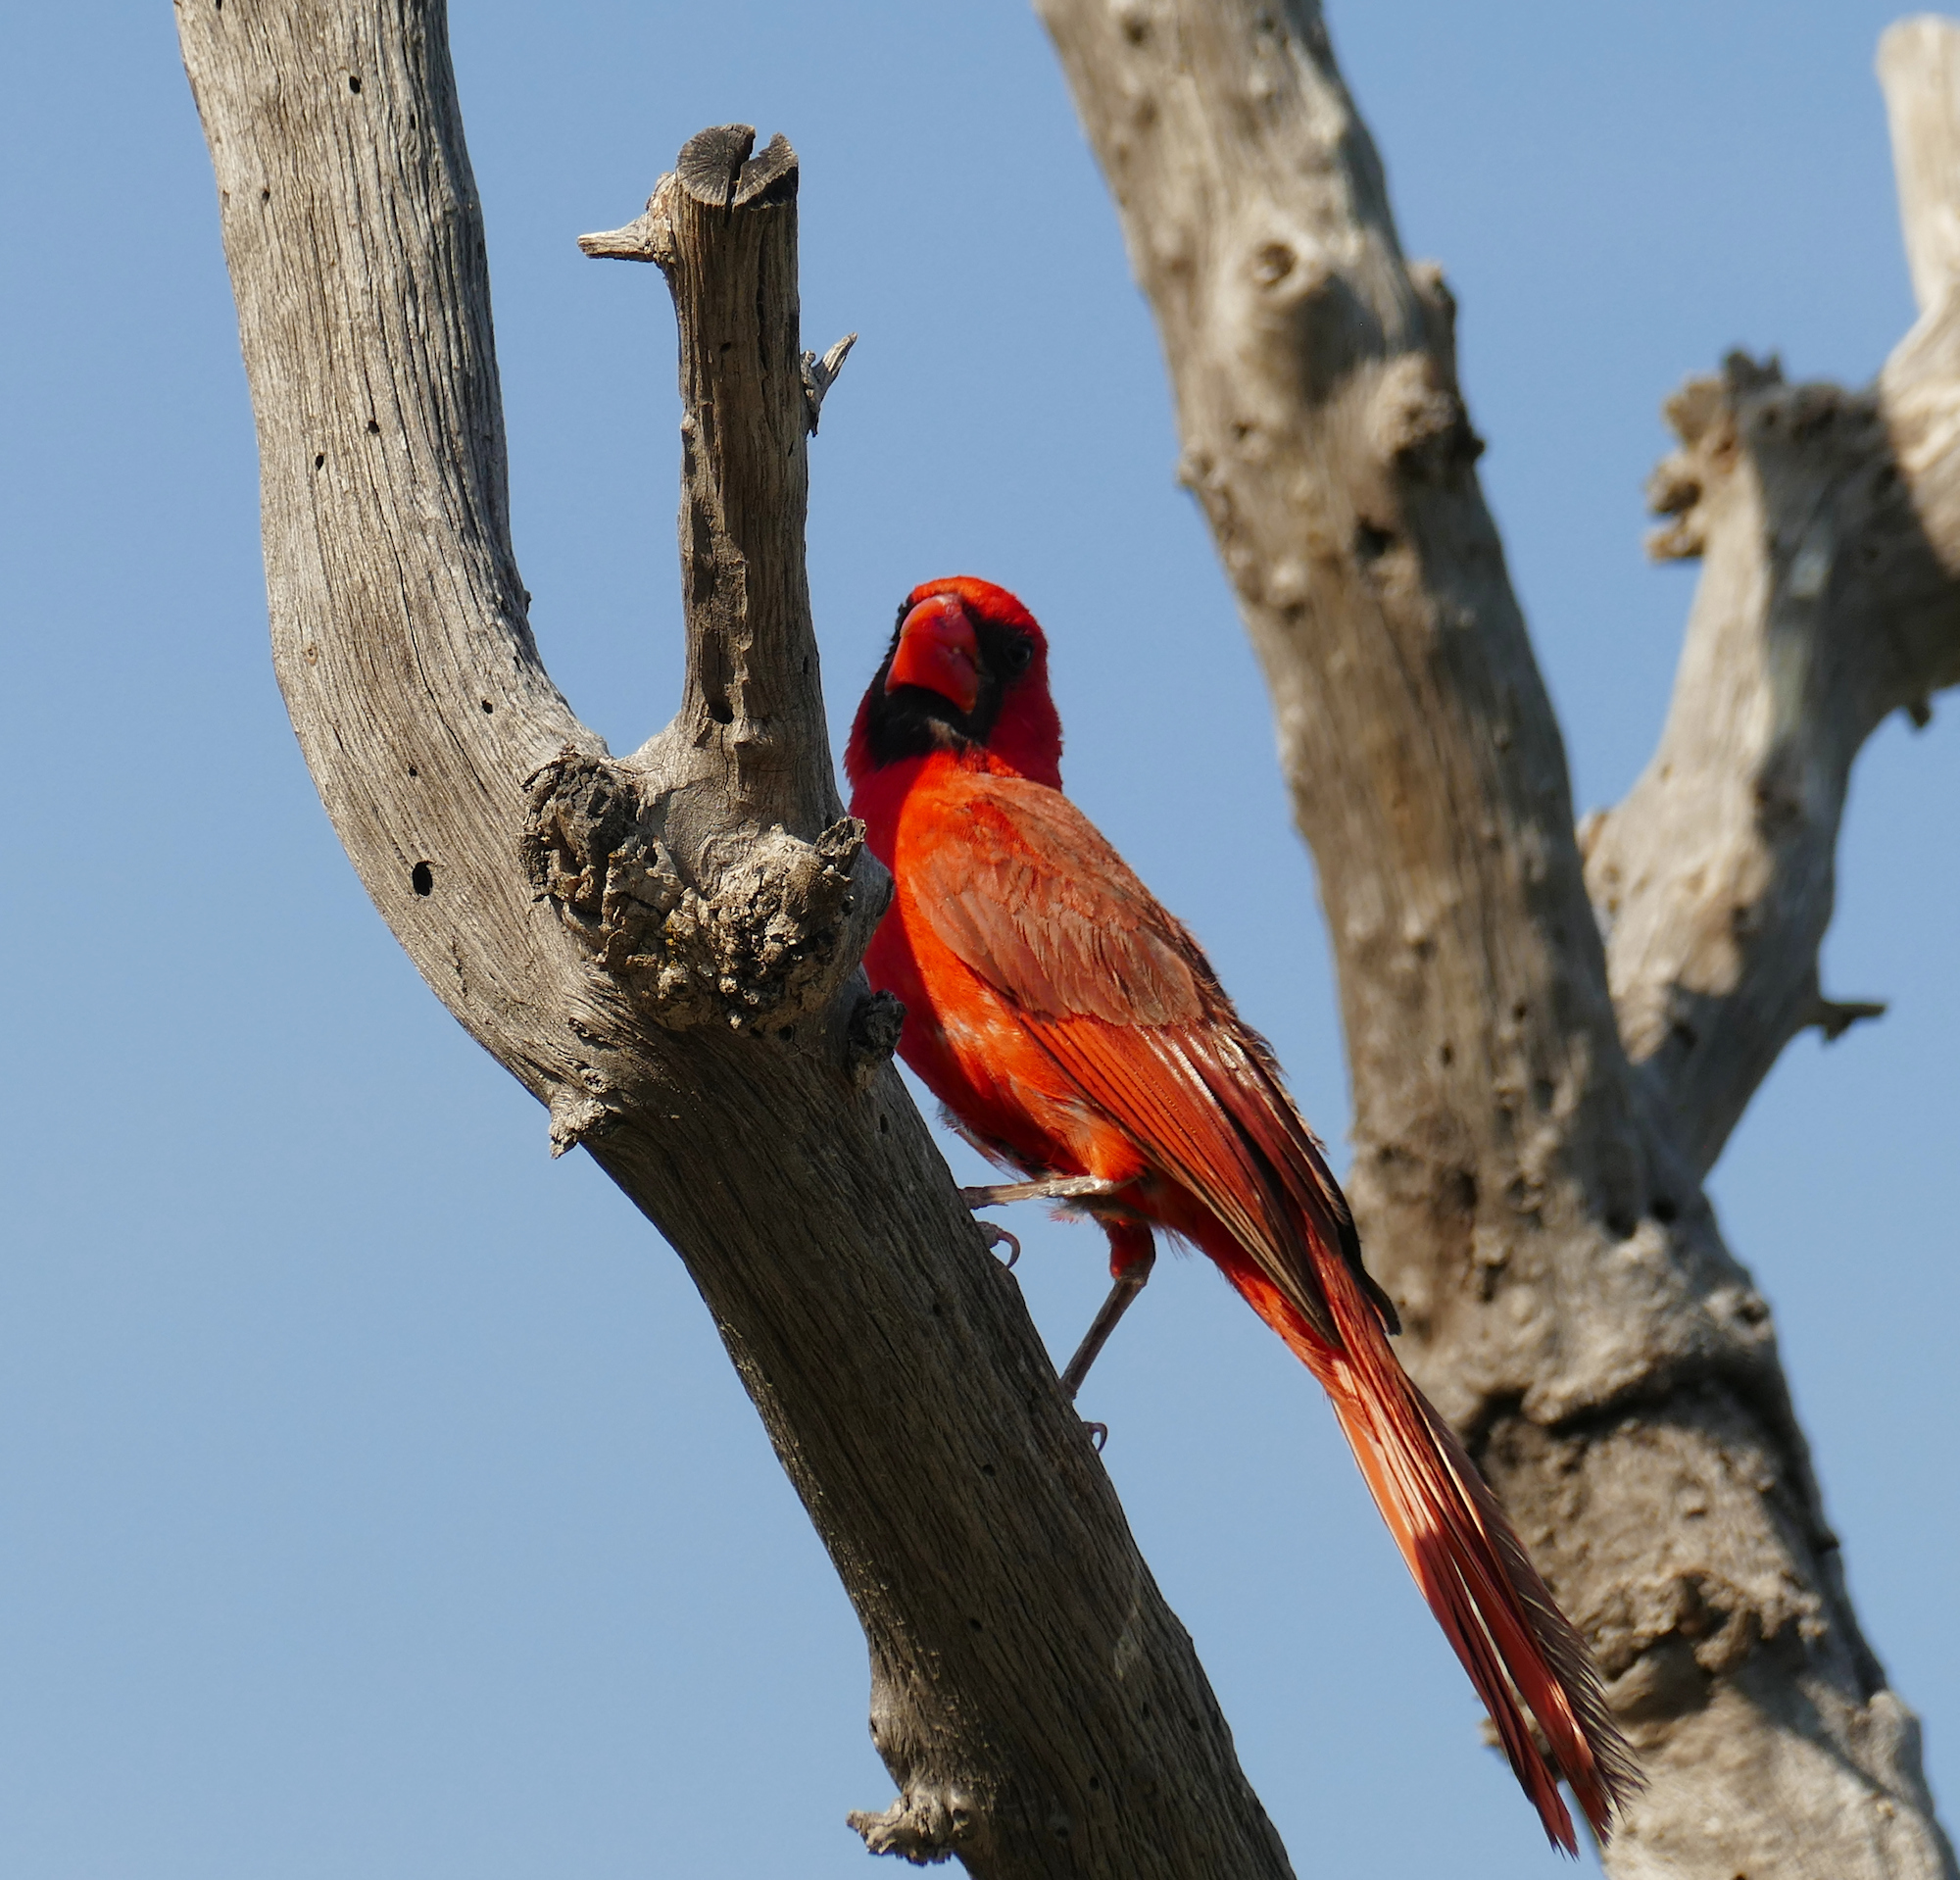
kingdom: Animalia
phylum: Chordata
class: Aves
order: Passeriformes
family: Cardinalidae
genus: Cardinalis
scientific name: Cardinalis cardinalis
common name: Northern cardinal
